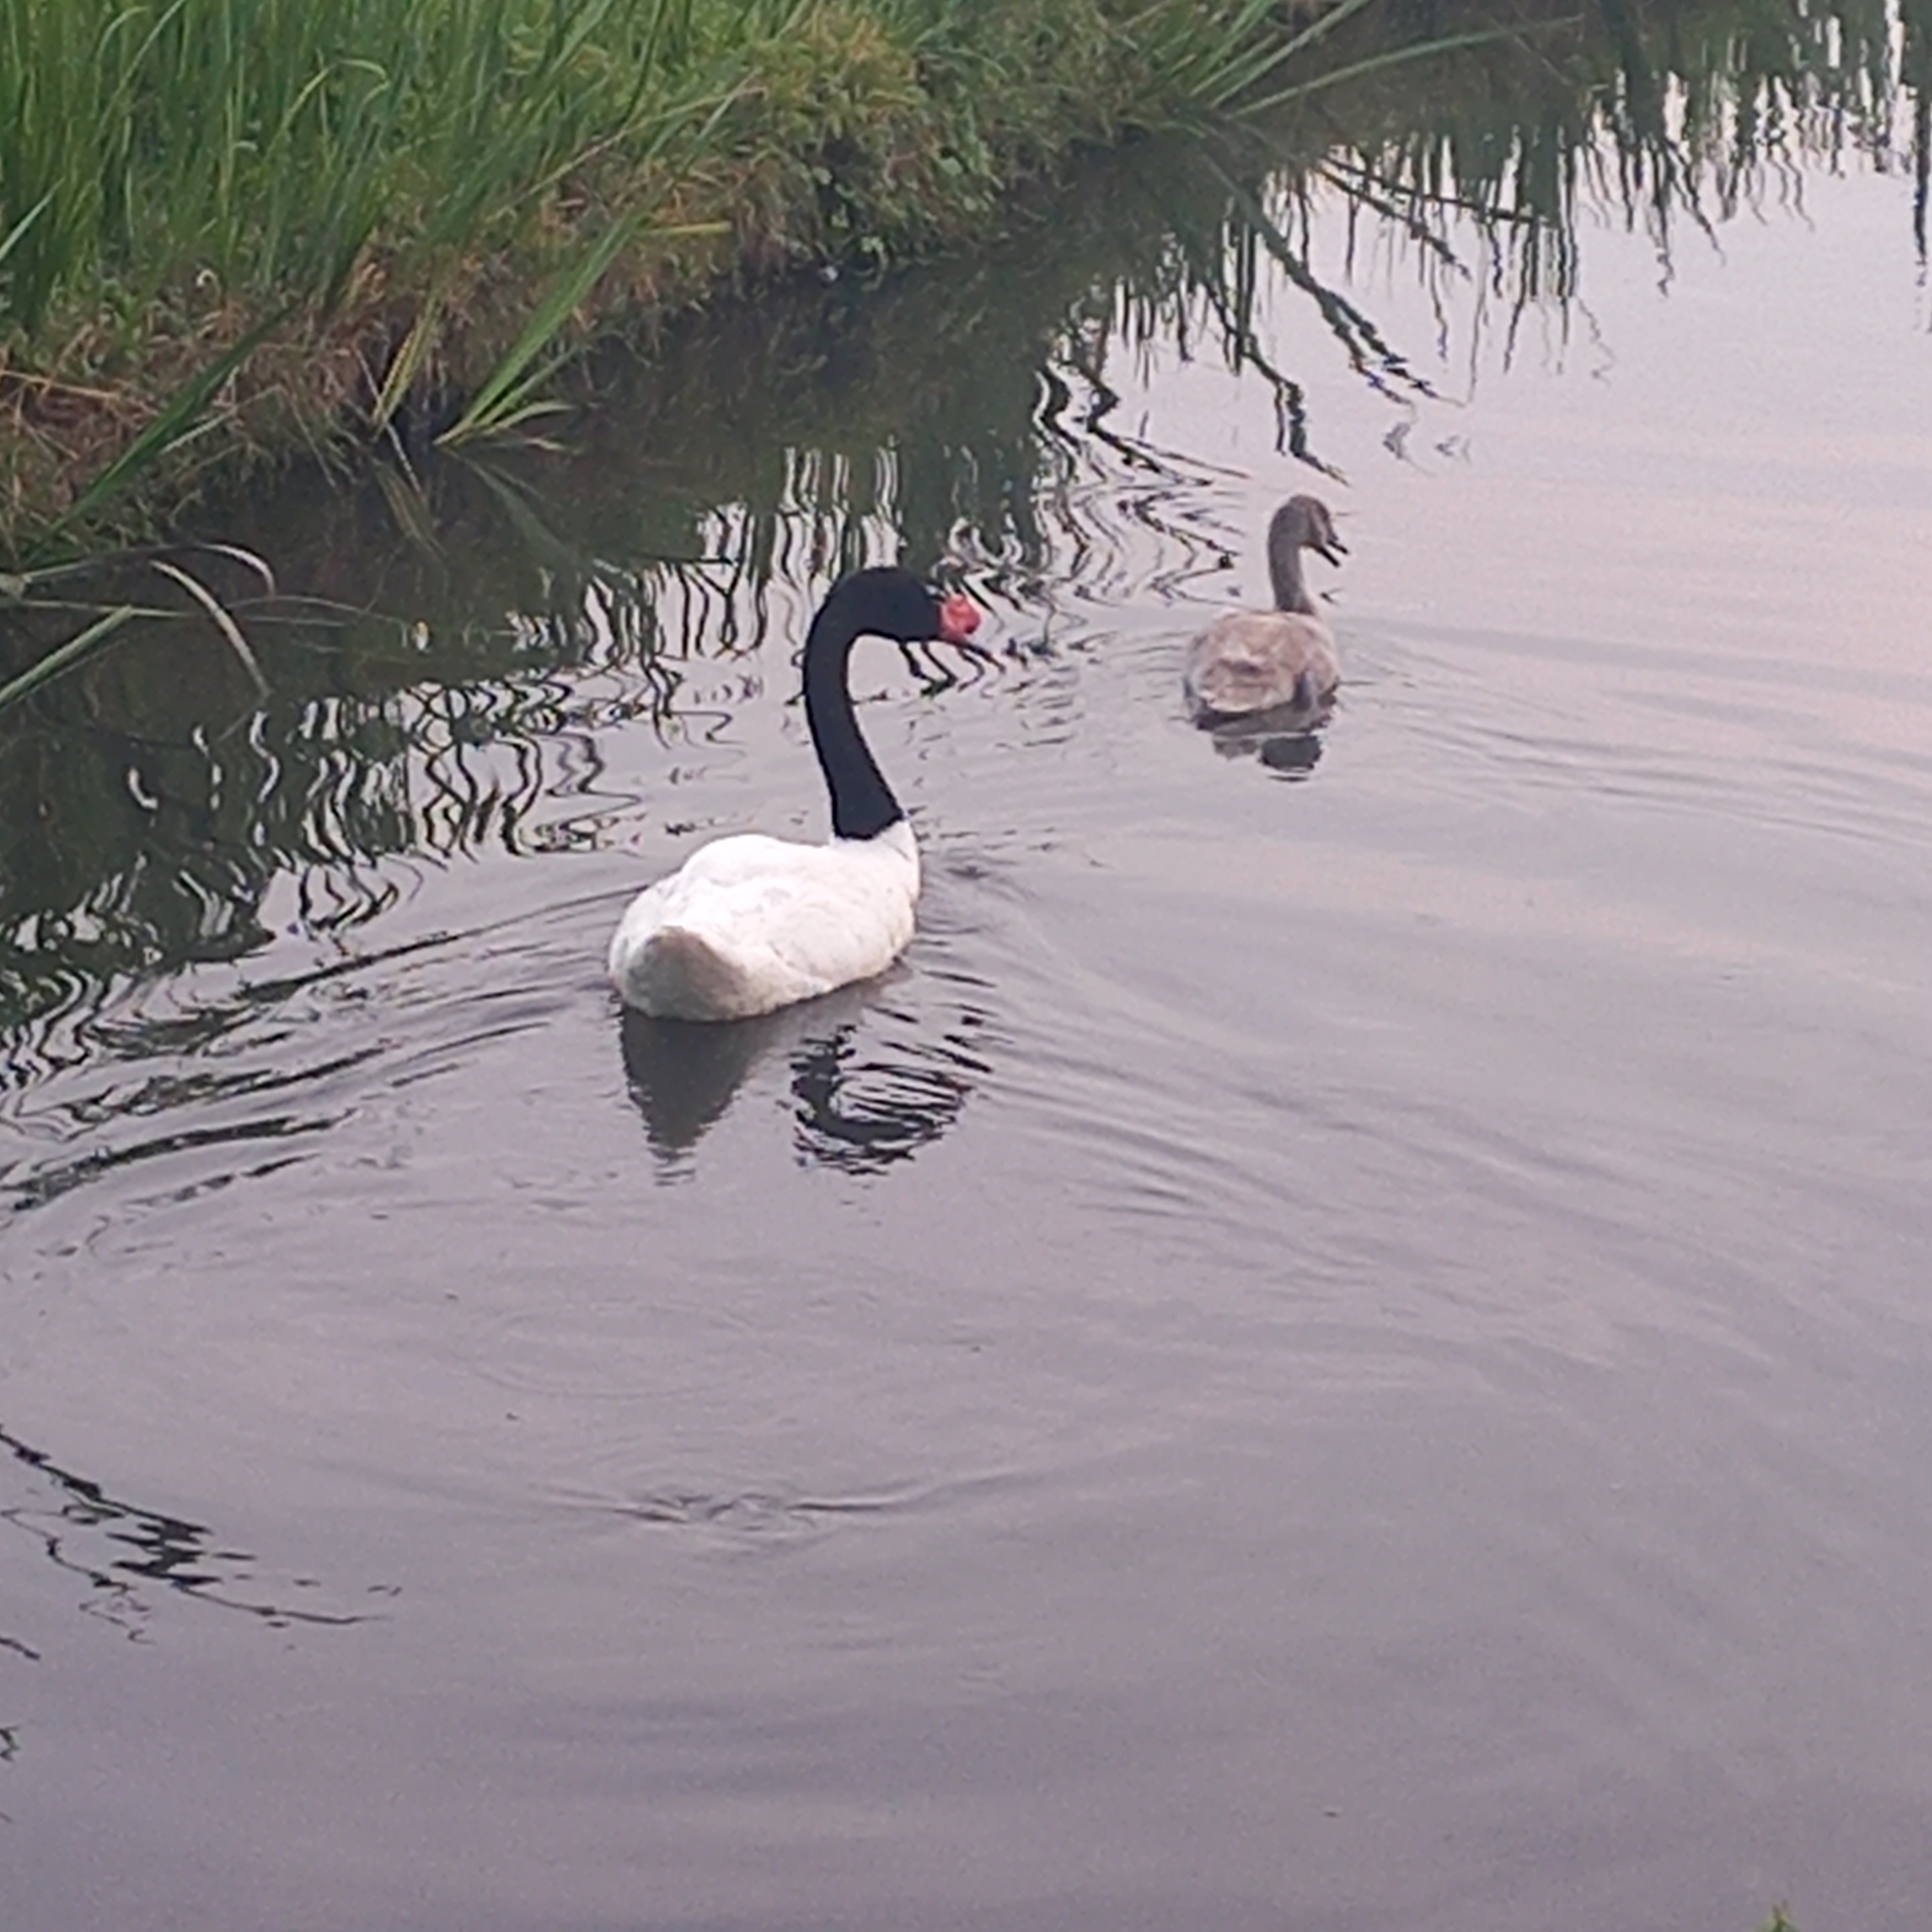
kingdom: Animalia
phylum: Chordata
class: Aves
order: Anseriformes
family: Anatidae
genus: Cygnus
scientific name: Cygnus melancoryphus
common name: Black-necked swan
